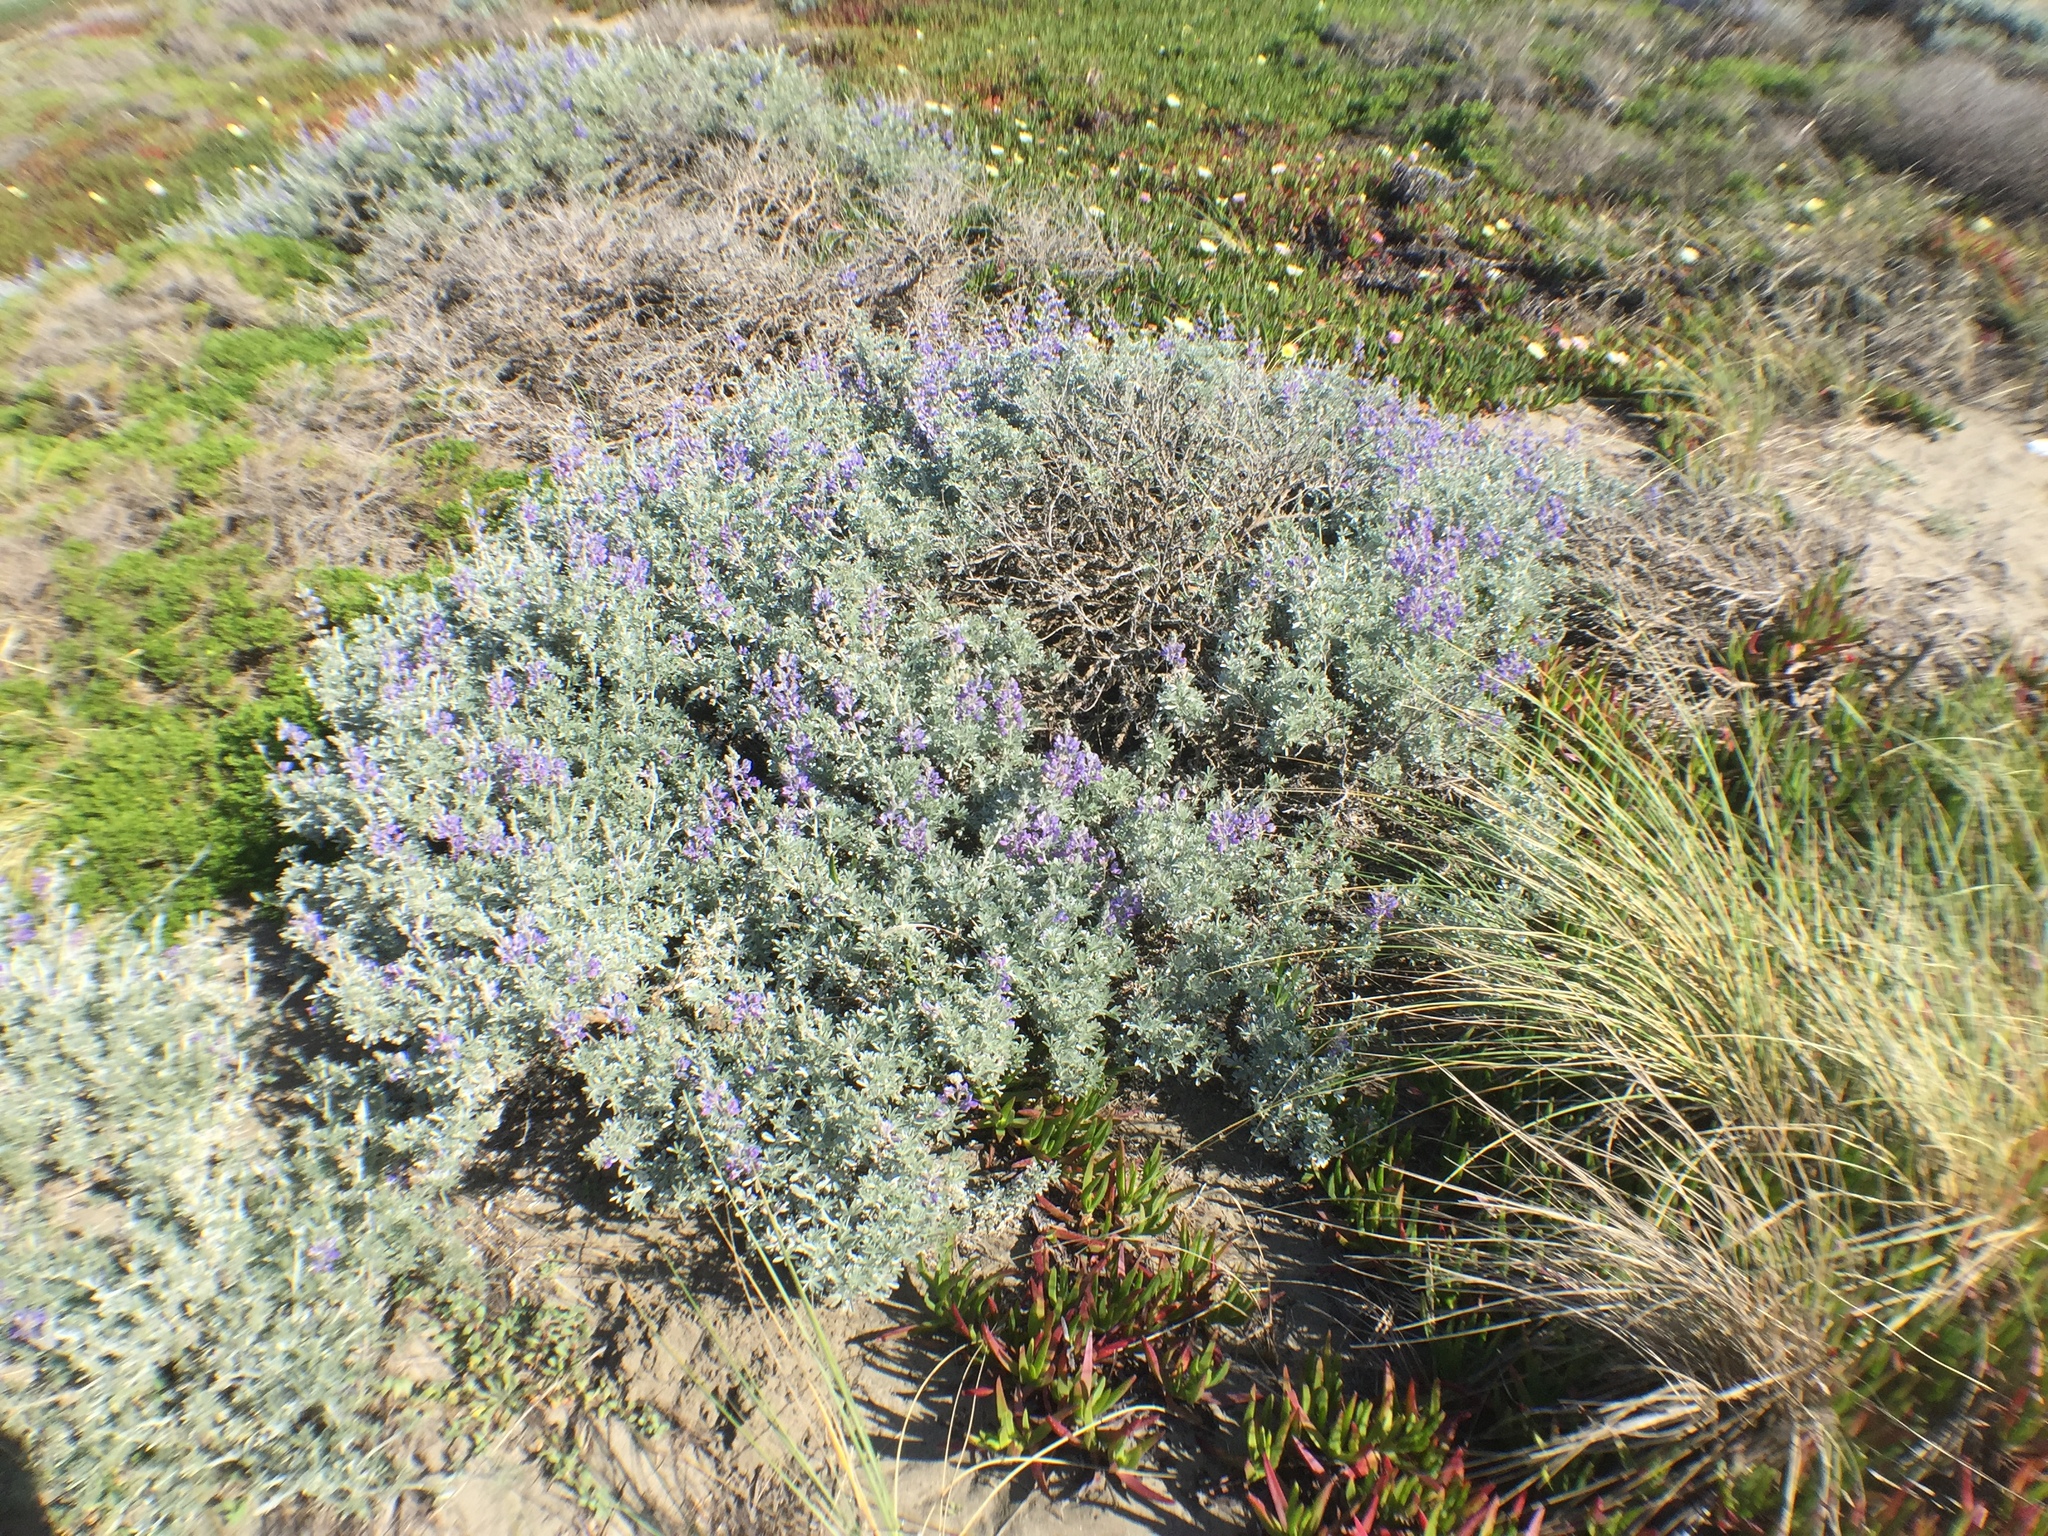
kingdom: Plantae
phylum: Tracheophyta
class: Magnoliopsida
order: Fabales
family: Fabaceae
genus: Lupinus
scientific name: Lupinus chamissonis
